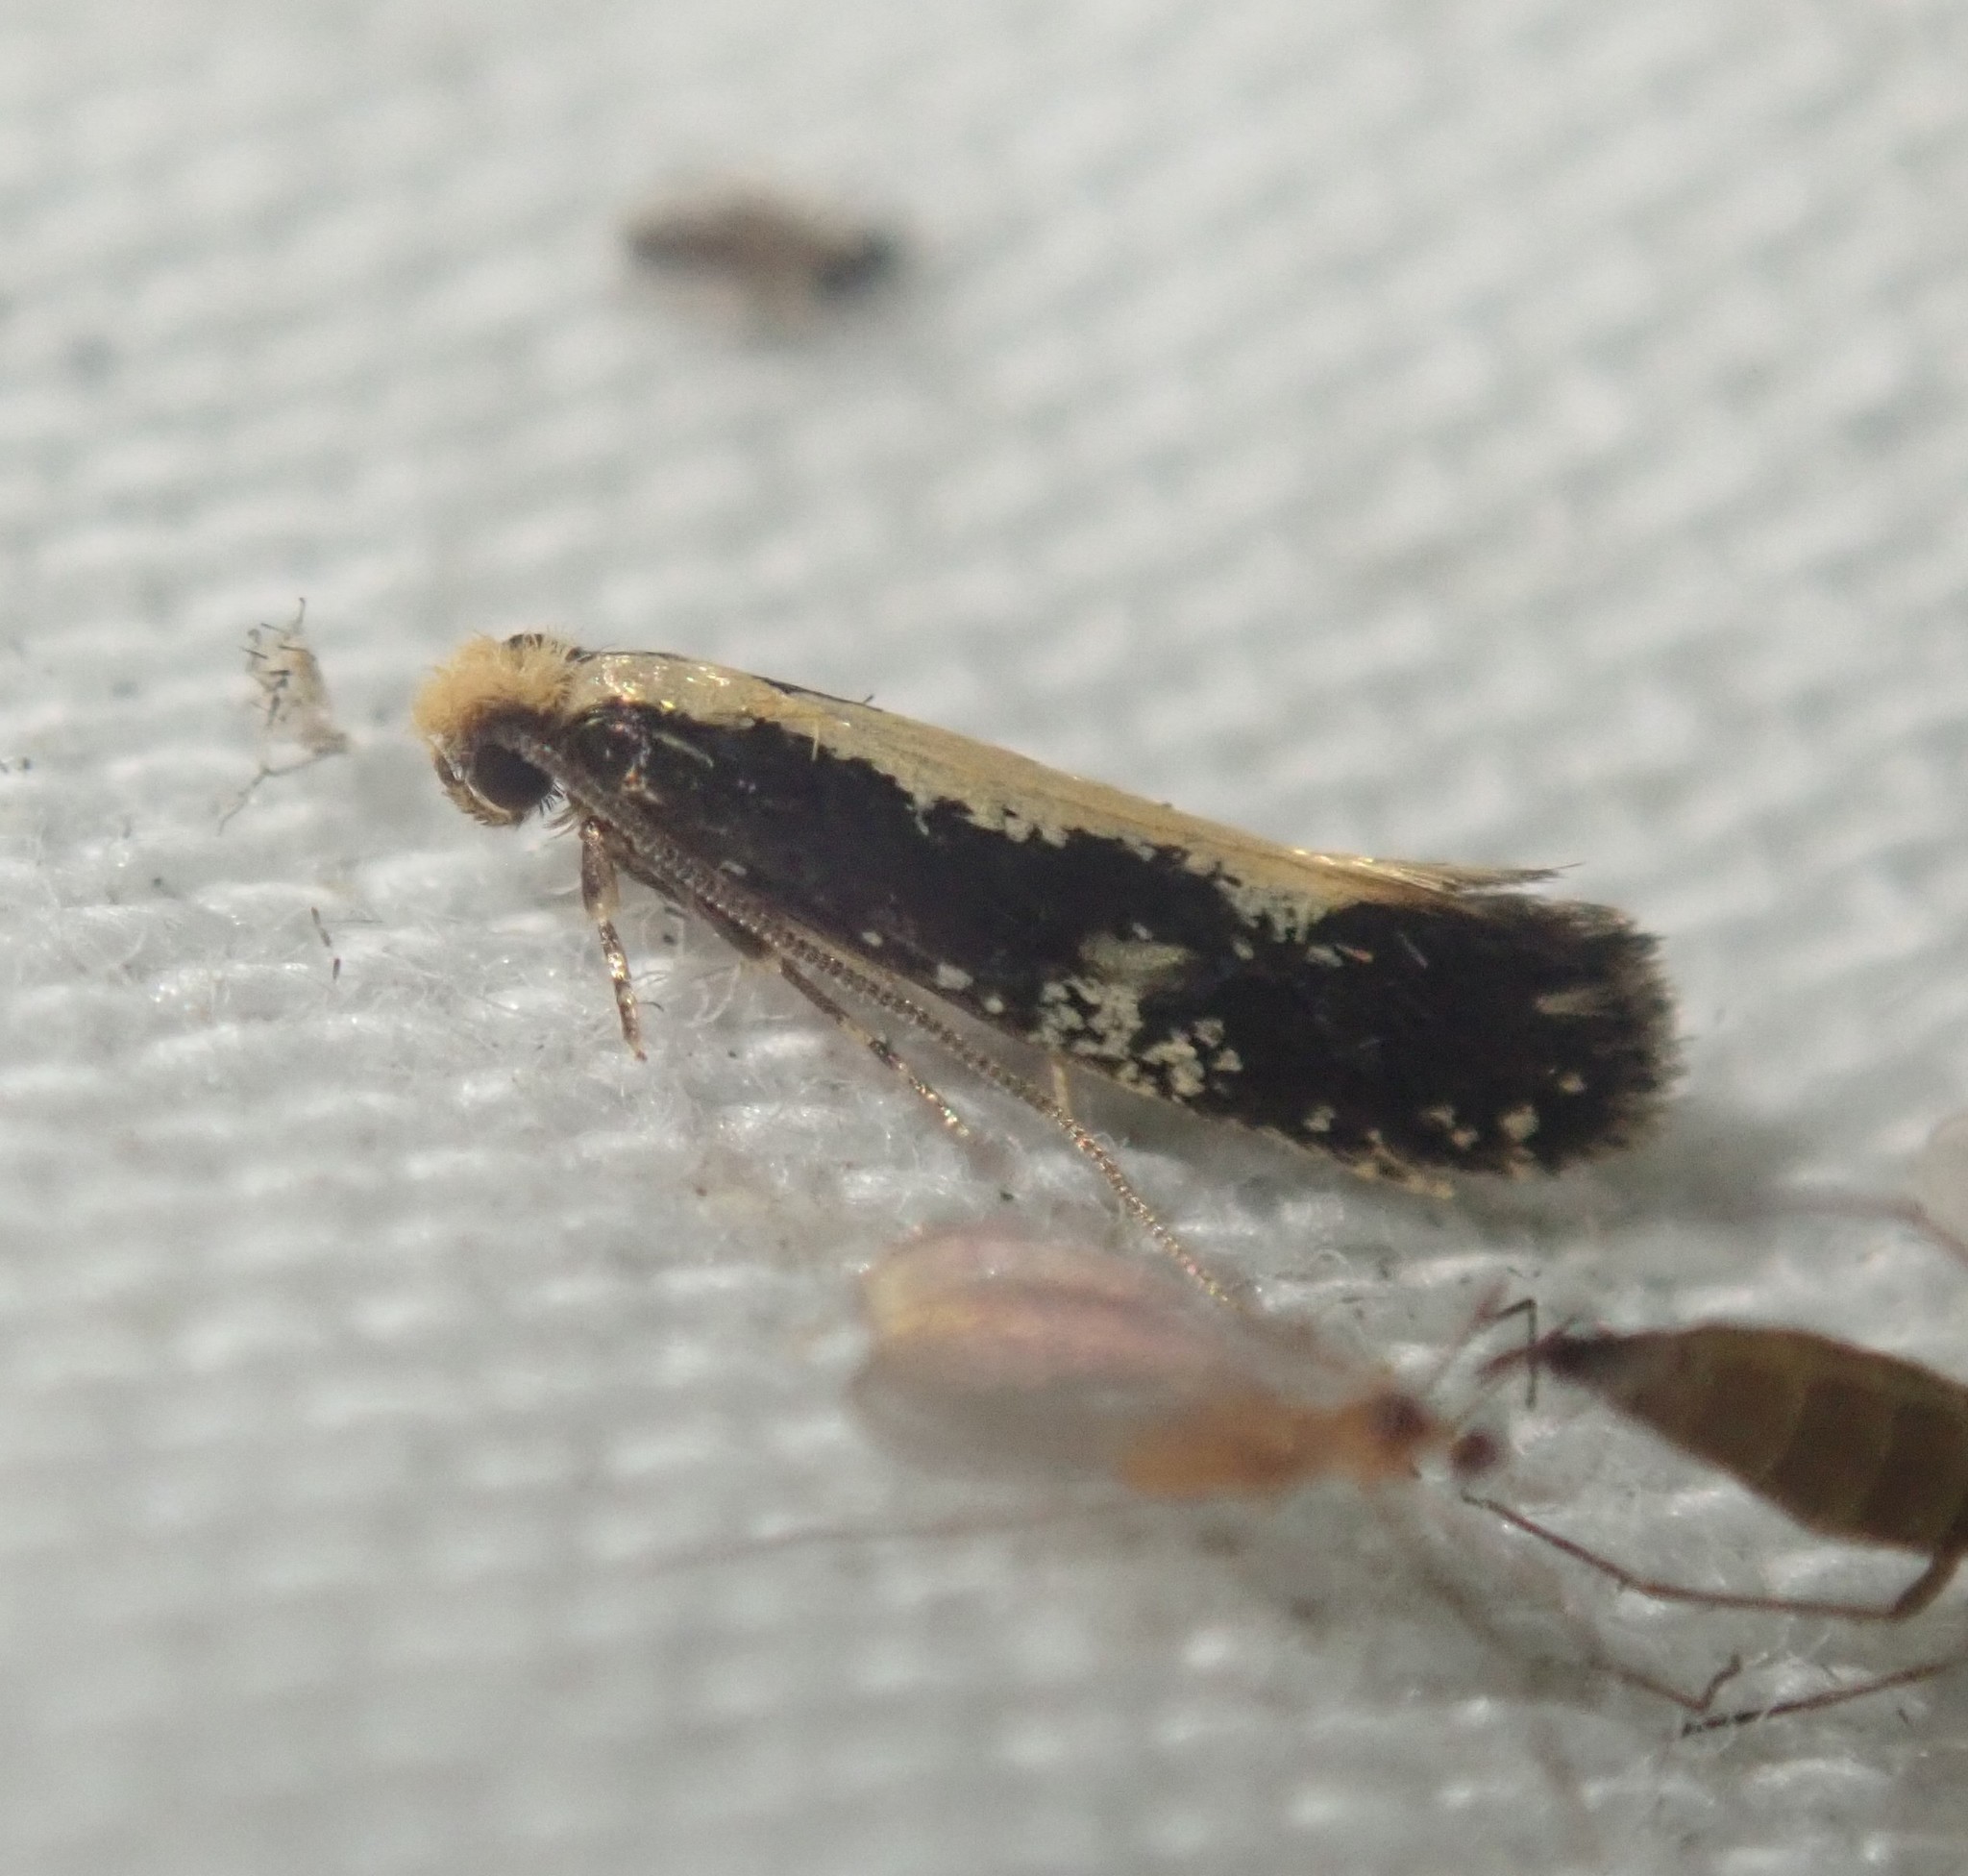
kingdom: Animalia
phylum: Arthropoda
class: Insecta
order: Lepidoptera
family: Tineidae
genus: Monopis
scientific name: Monopis obviella
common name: Tineid moth
